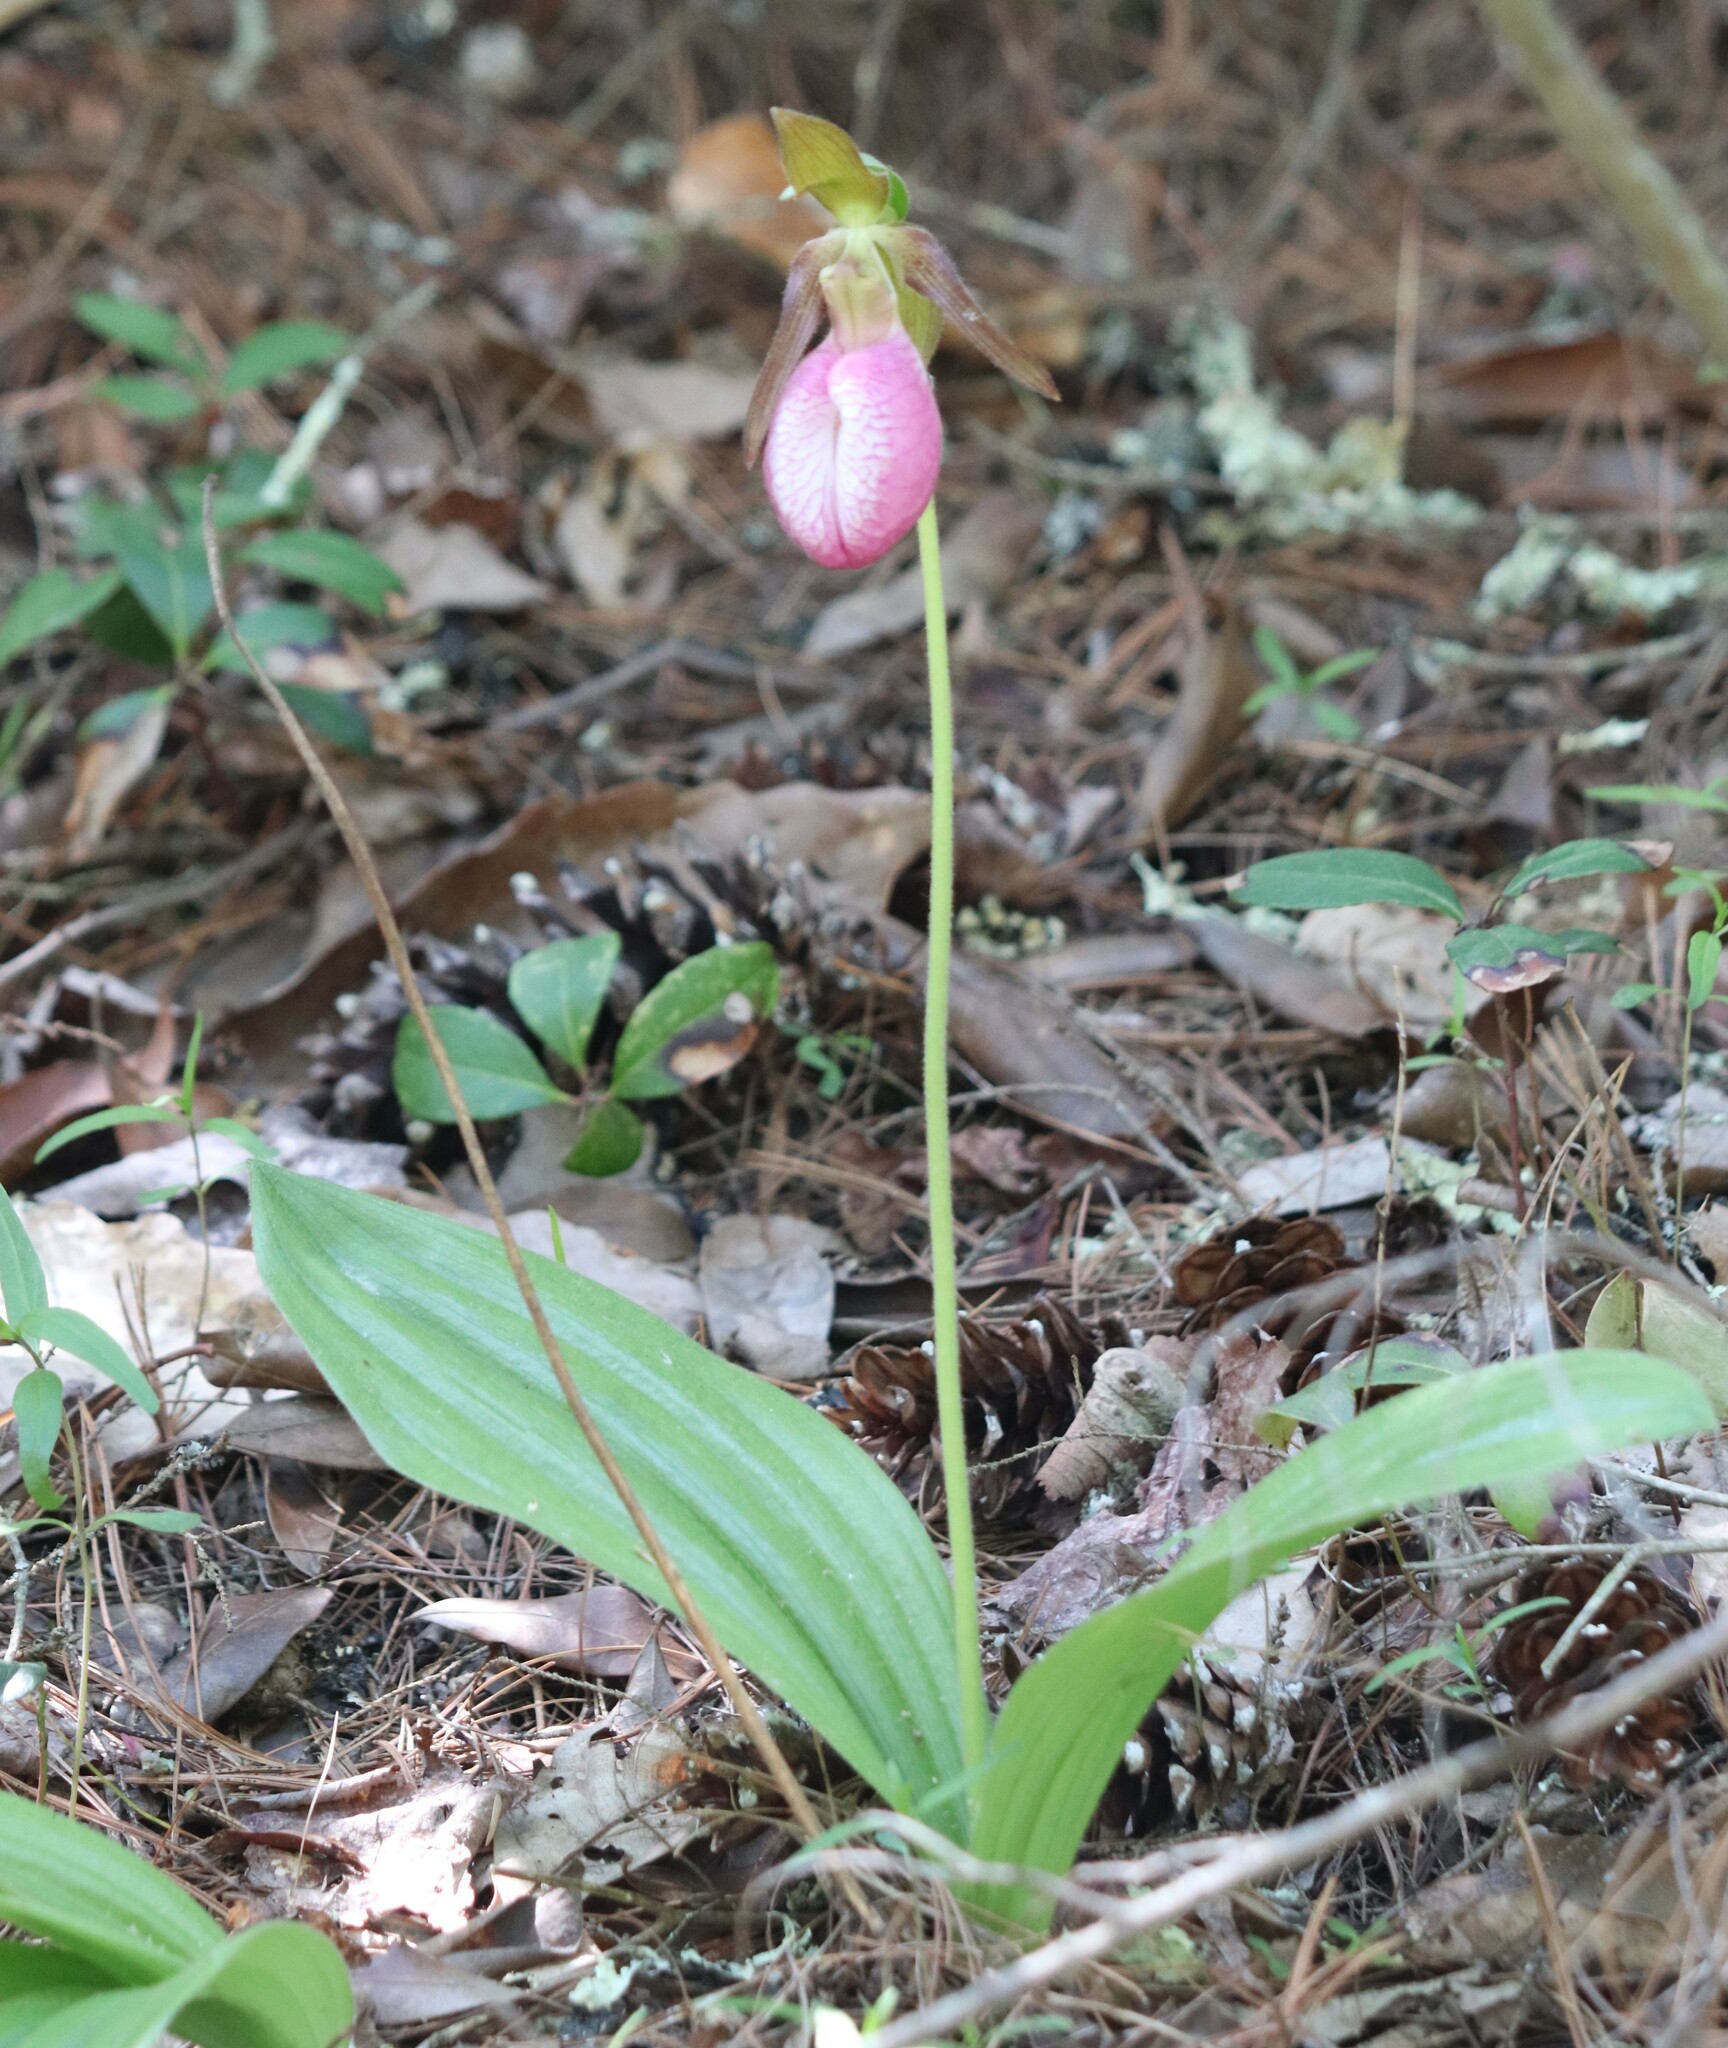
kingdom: Plantae
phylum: Tracheophyta
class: Liliopsida
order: Asparagales
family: Orchidaceae
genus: Cypripedium
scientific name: Cypripedium acaule
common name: Pink lady's-slipper
